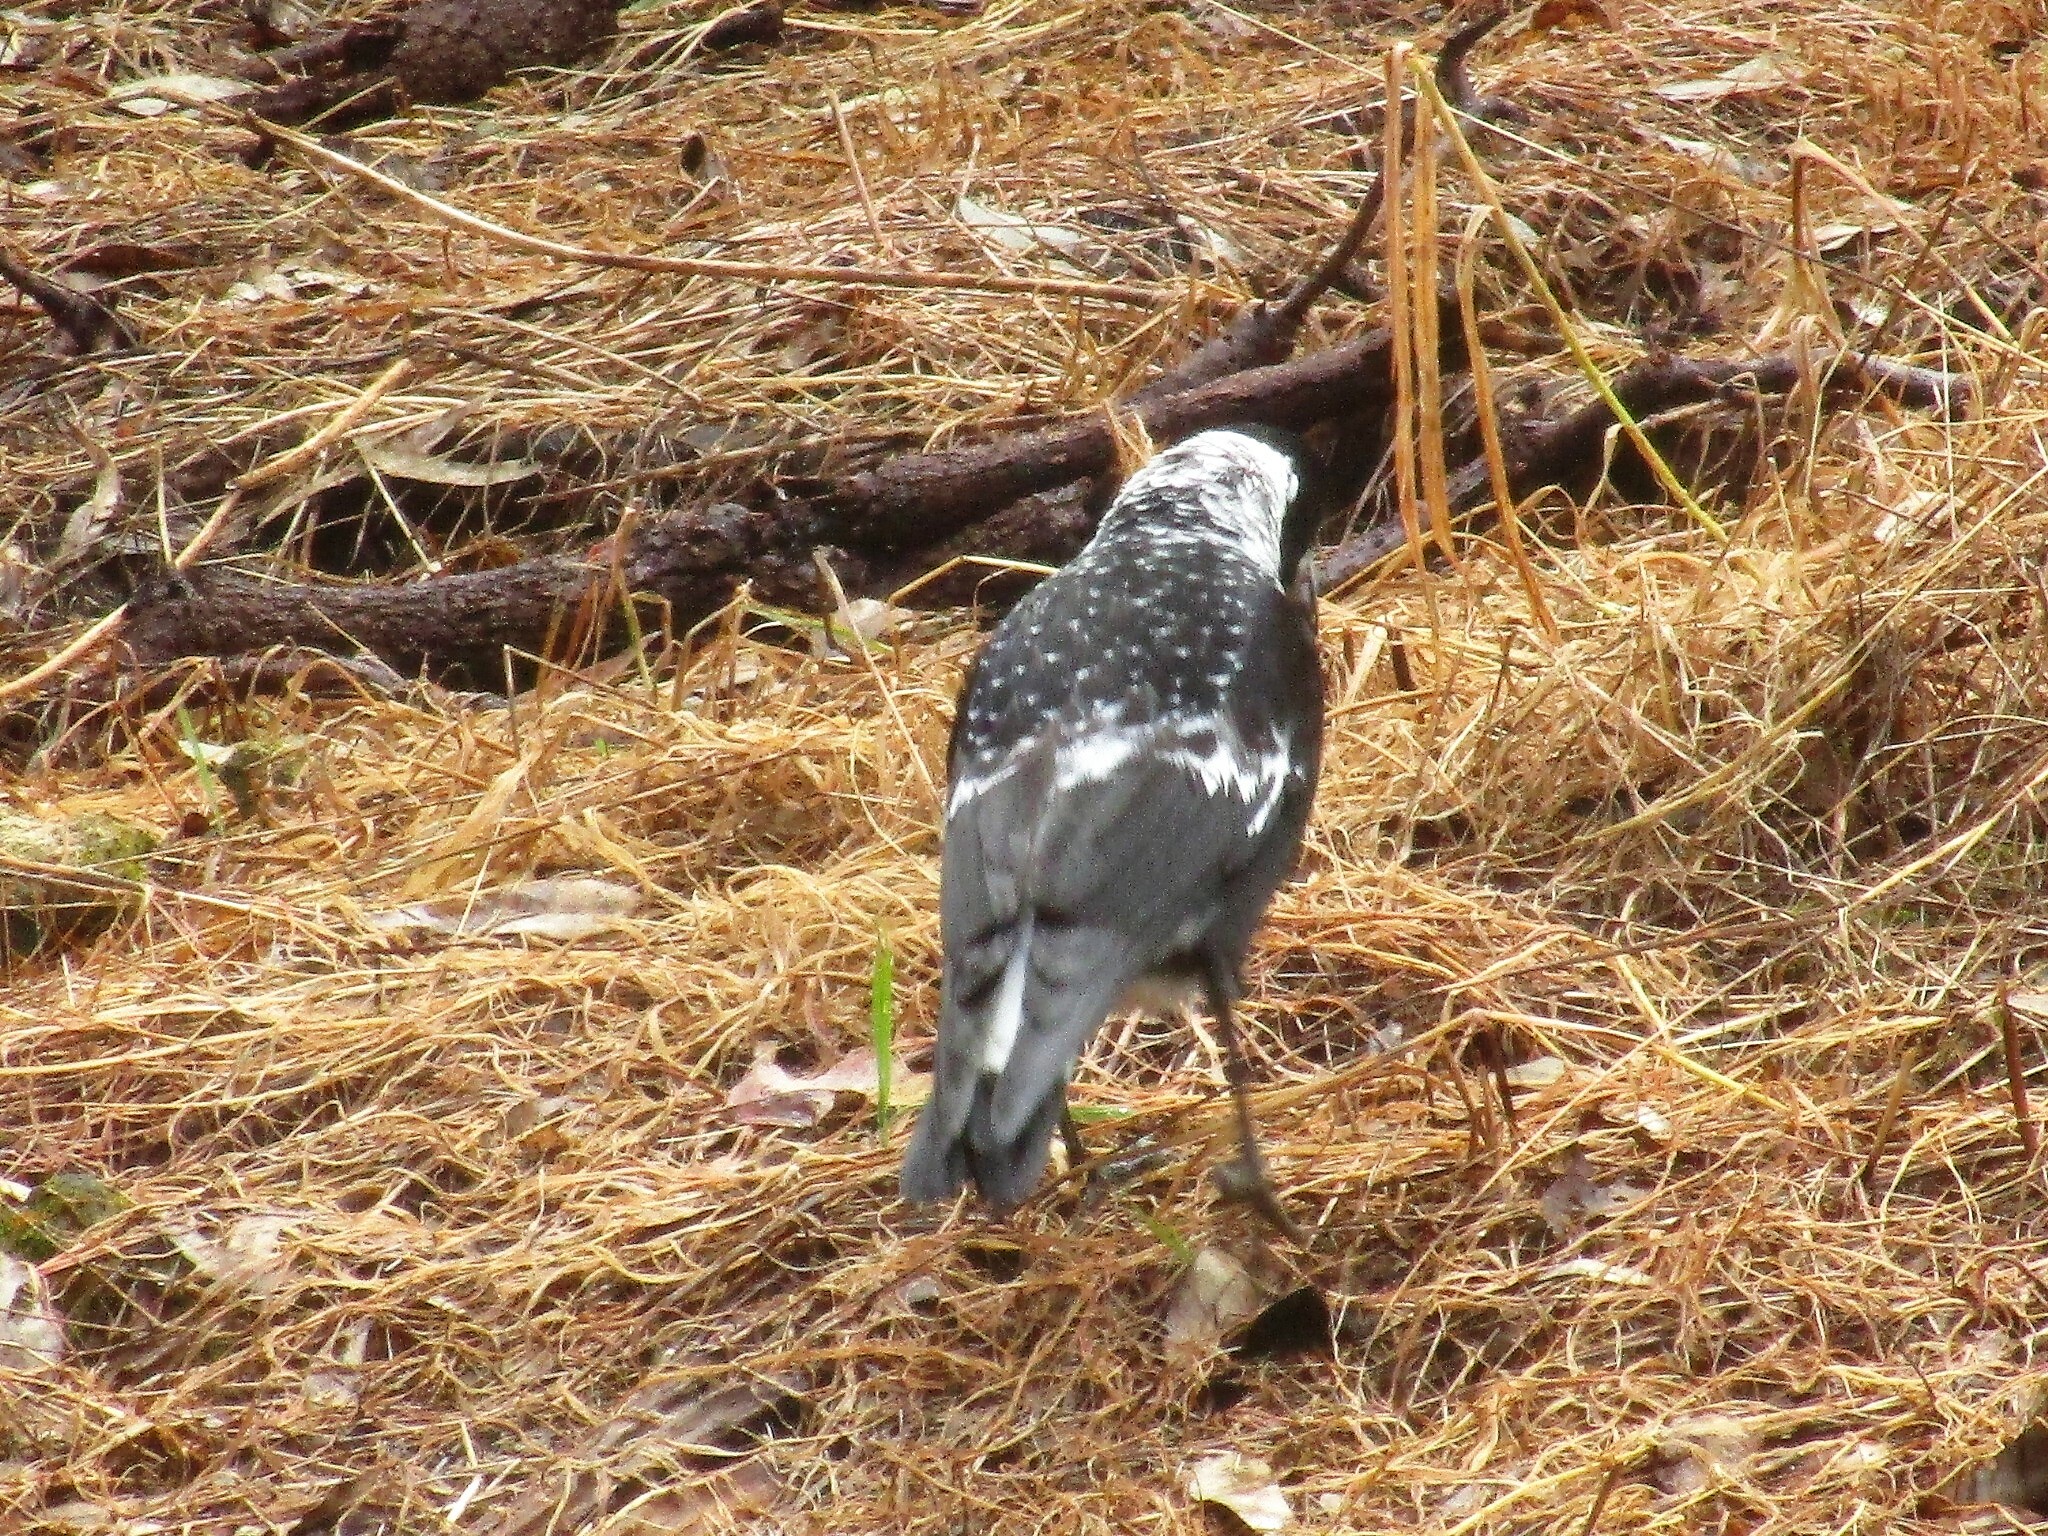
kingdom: Animalia
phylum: Chordata
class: Aves
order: Passeriformes
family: Cracticidae
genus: Gymnorhina
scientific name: Gymnorhina tibicen
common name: Australian magpie
